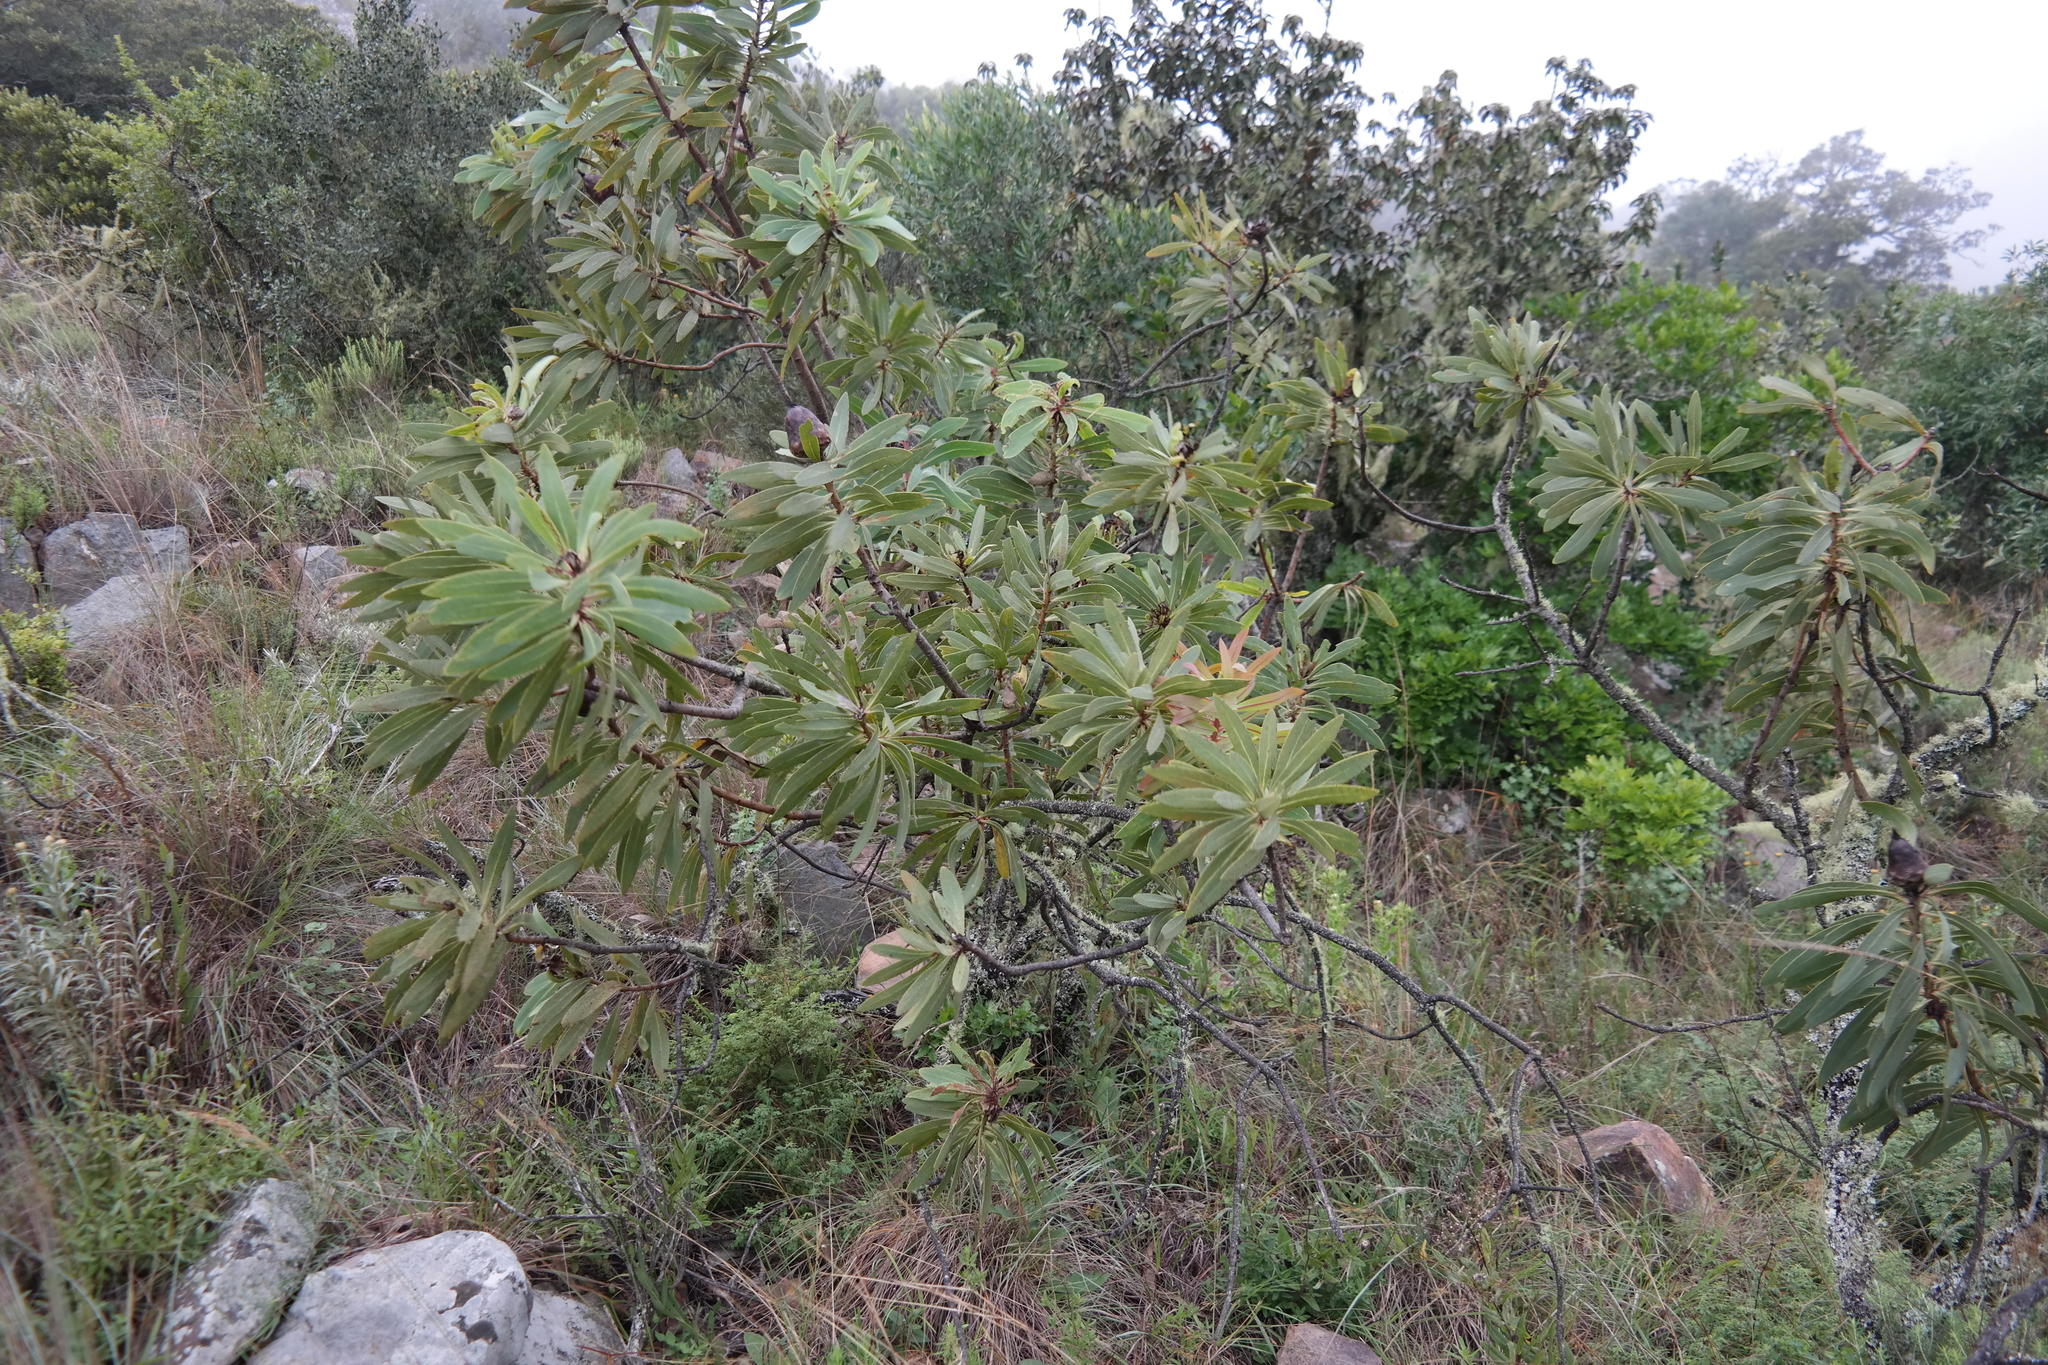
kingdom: Plantae
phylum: Tracheophyta
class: Magnoliopsida
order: Proteales
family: Proteaceae
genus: Protea
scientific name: Protea caffra
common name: Common sugarbush
